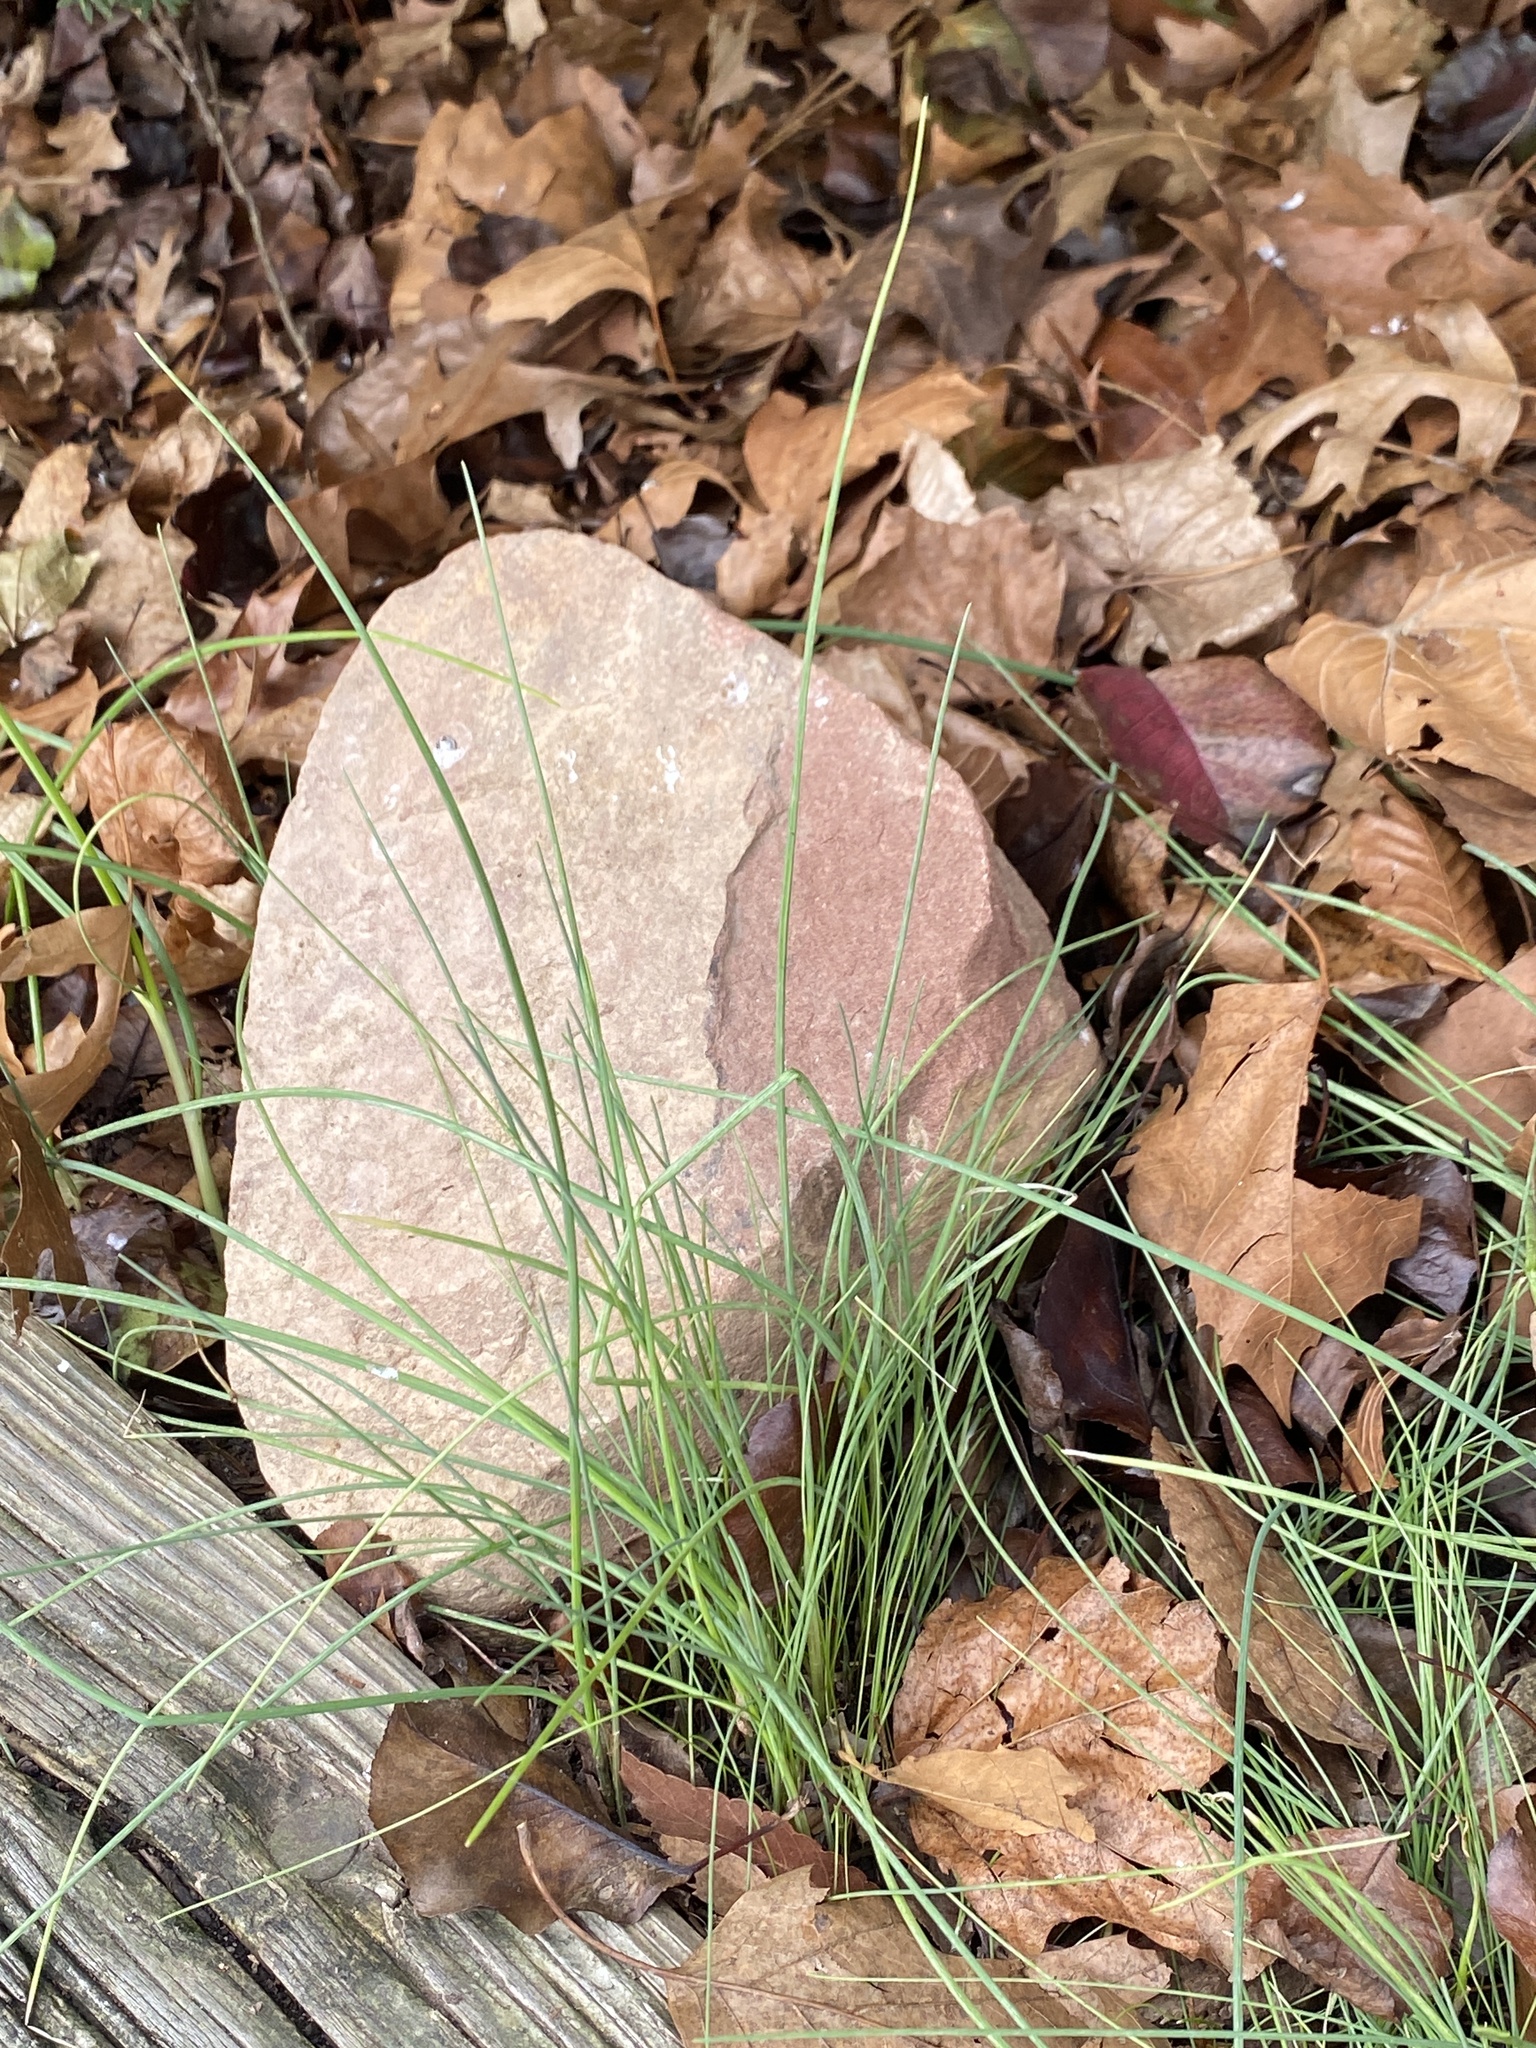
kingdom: Plantae
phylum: Tracheophyta
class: Liliopsida
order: Asparagales
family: Amaryllidaceae
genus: Allium
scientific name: Allium vineale
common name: Crow garlic
